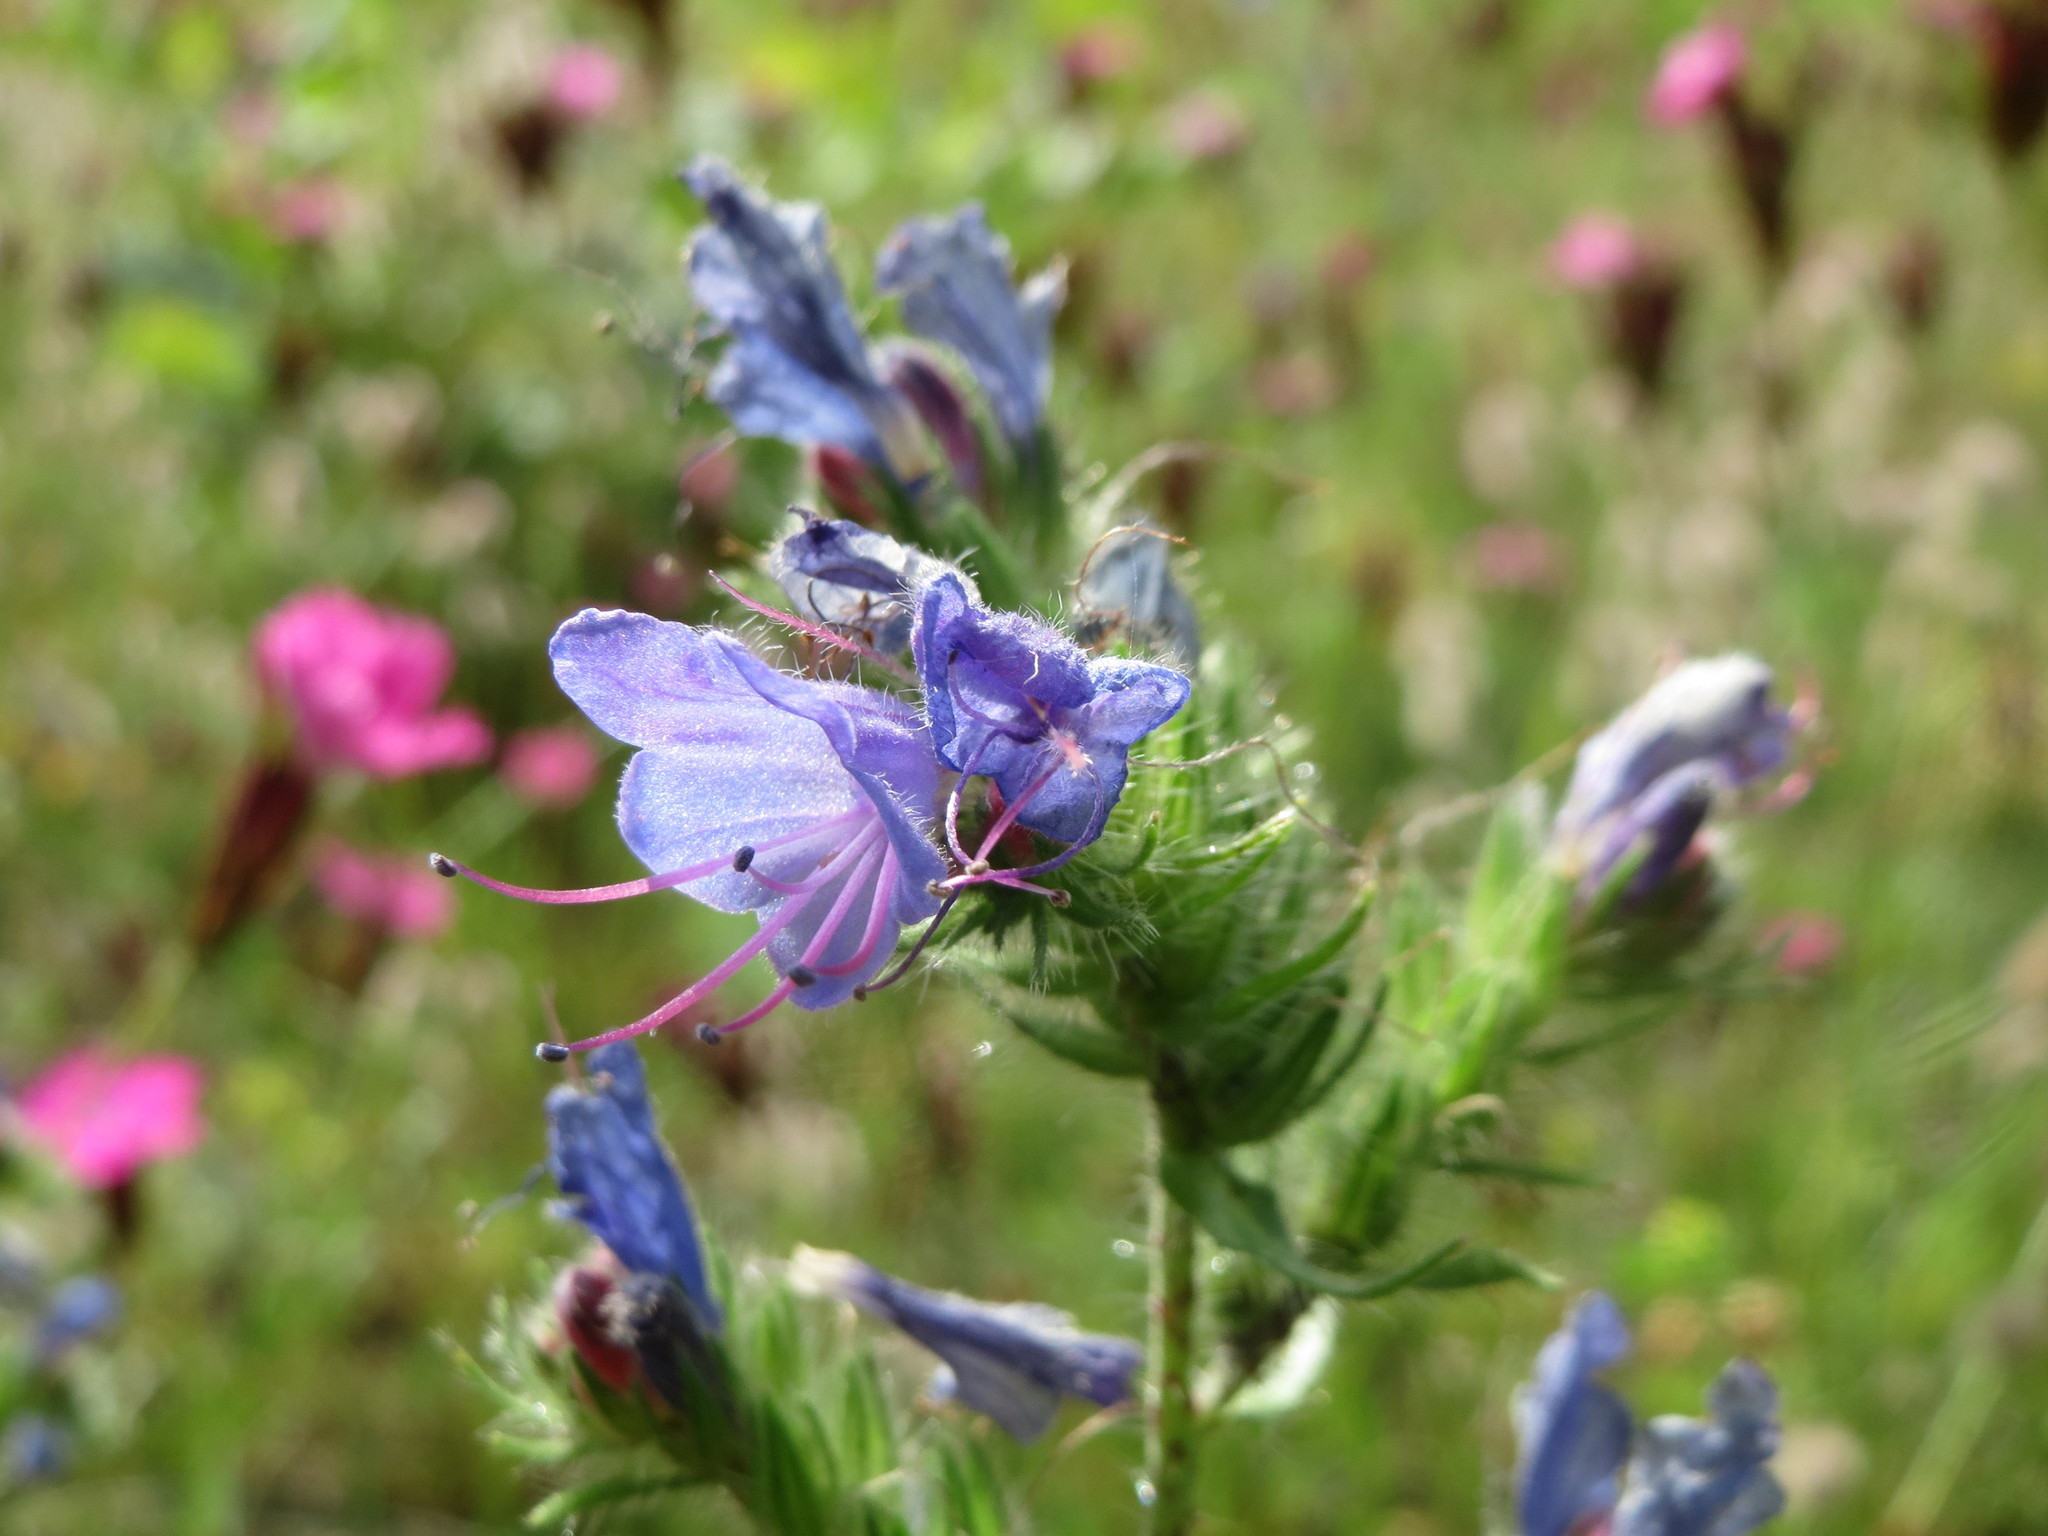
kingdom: Plantae
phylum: Tracheophyta
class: Magnoliopsida
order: Boraginales
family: Boraginaceae
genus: Echium
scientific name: Echium vulgare
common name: Common viper's bugloss
